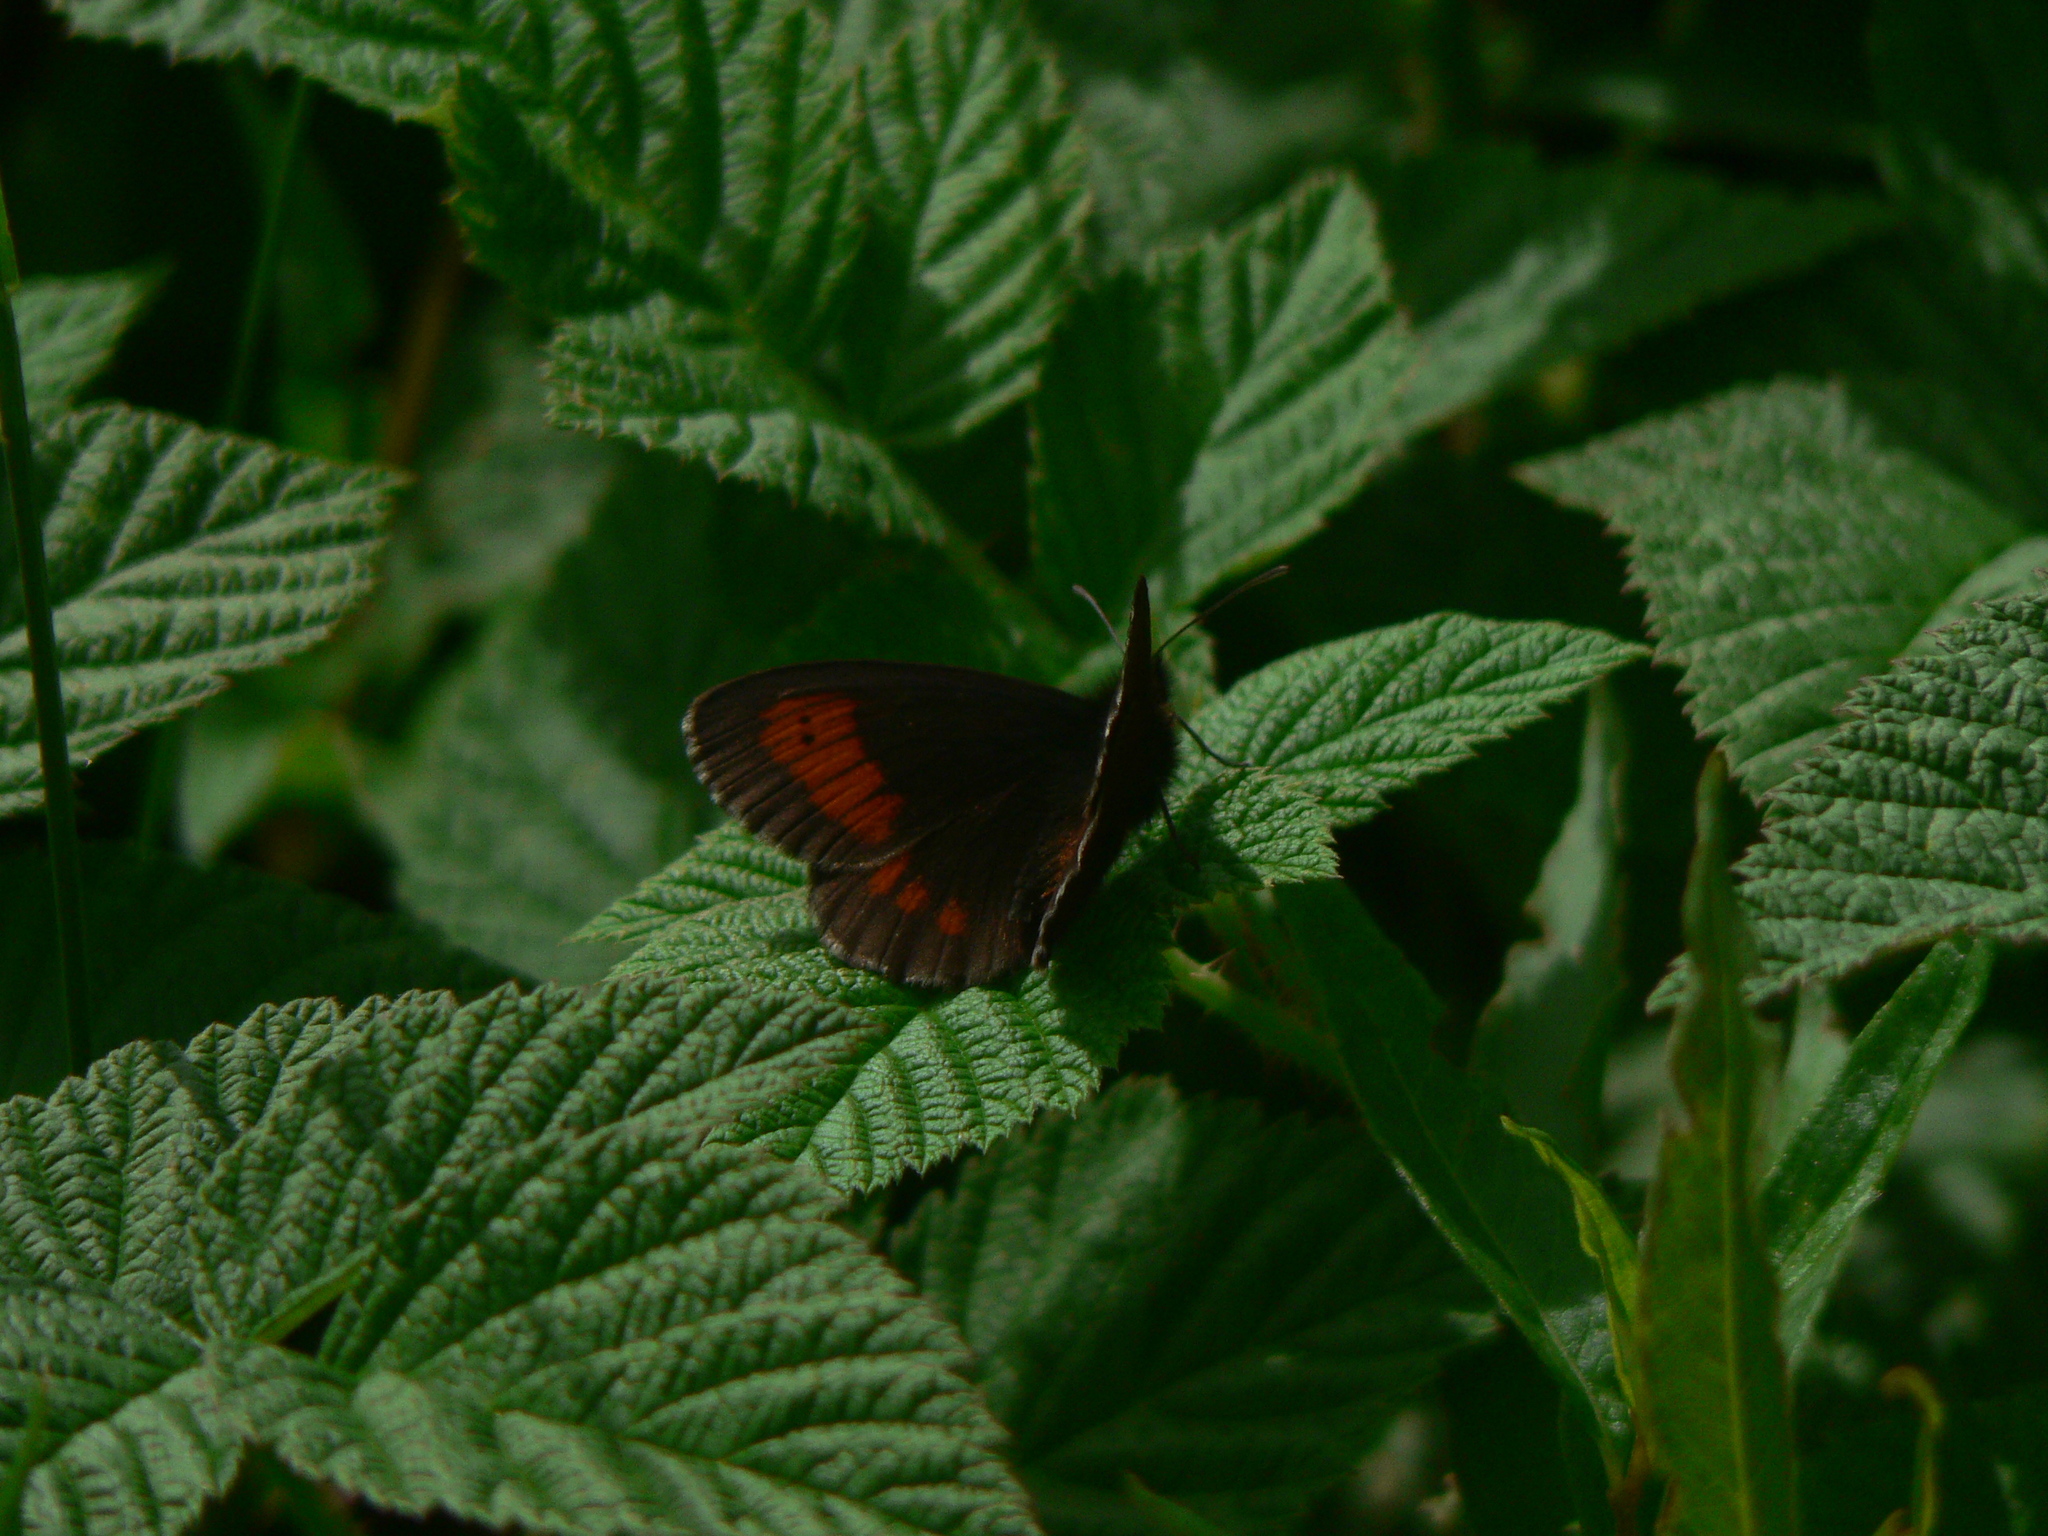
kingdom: Animalia
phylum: Arthropoda
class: Insecta
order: Lepidoptera
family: Nymphalidae
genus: Erebia
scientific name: Erebia euryale
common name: Large ringlet
